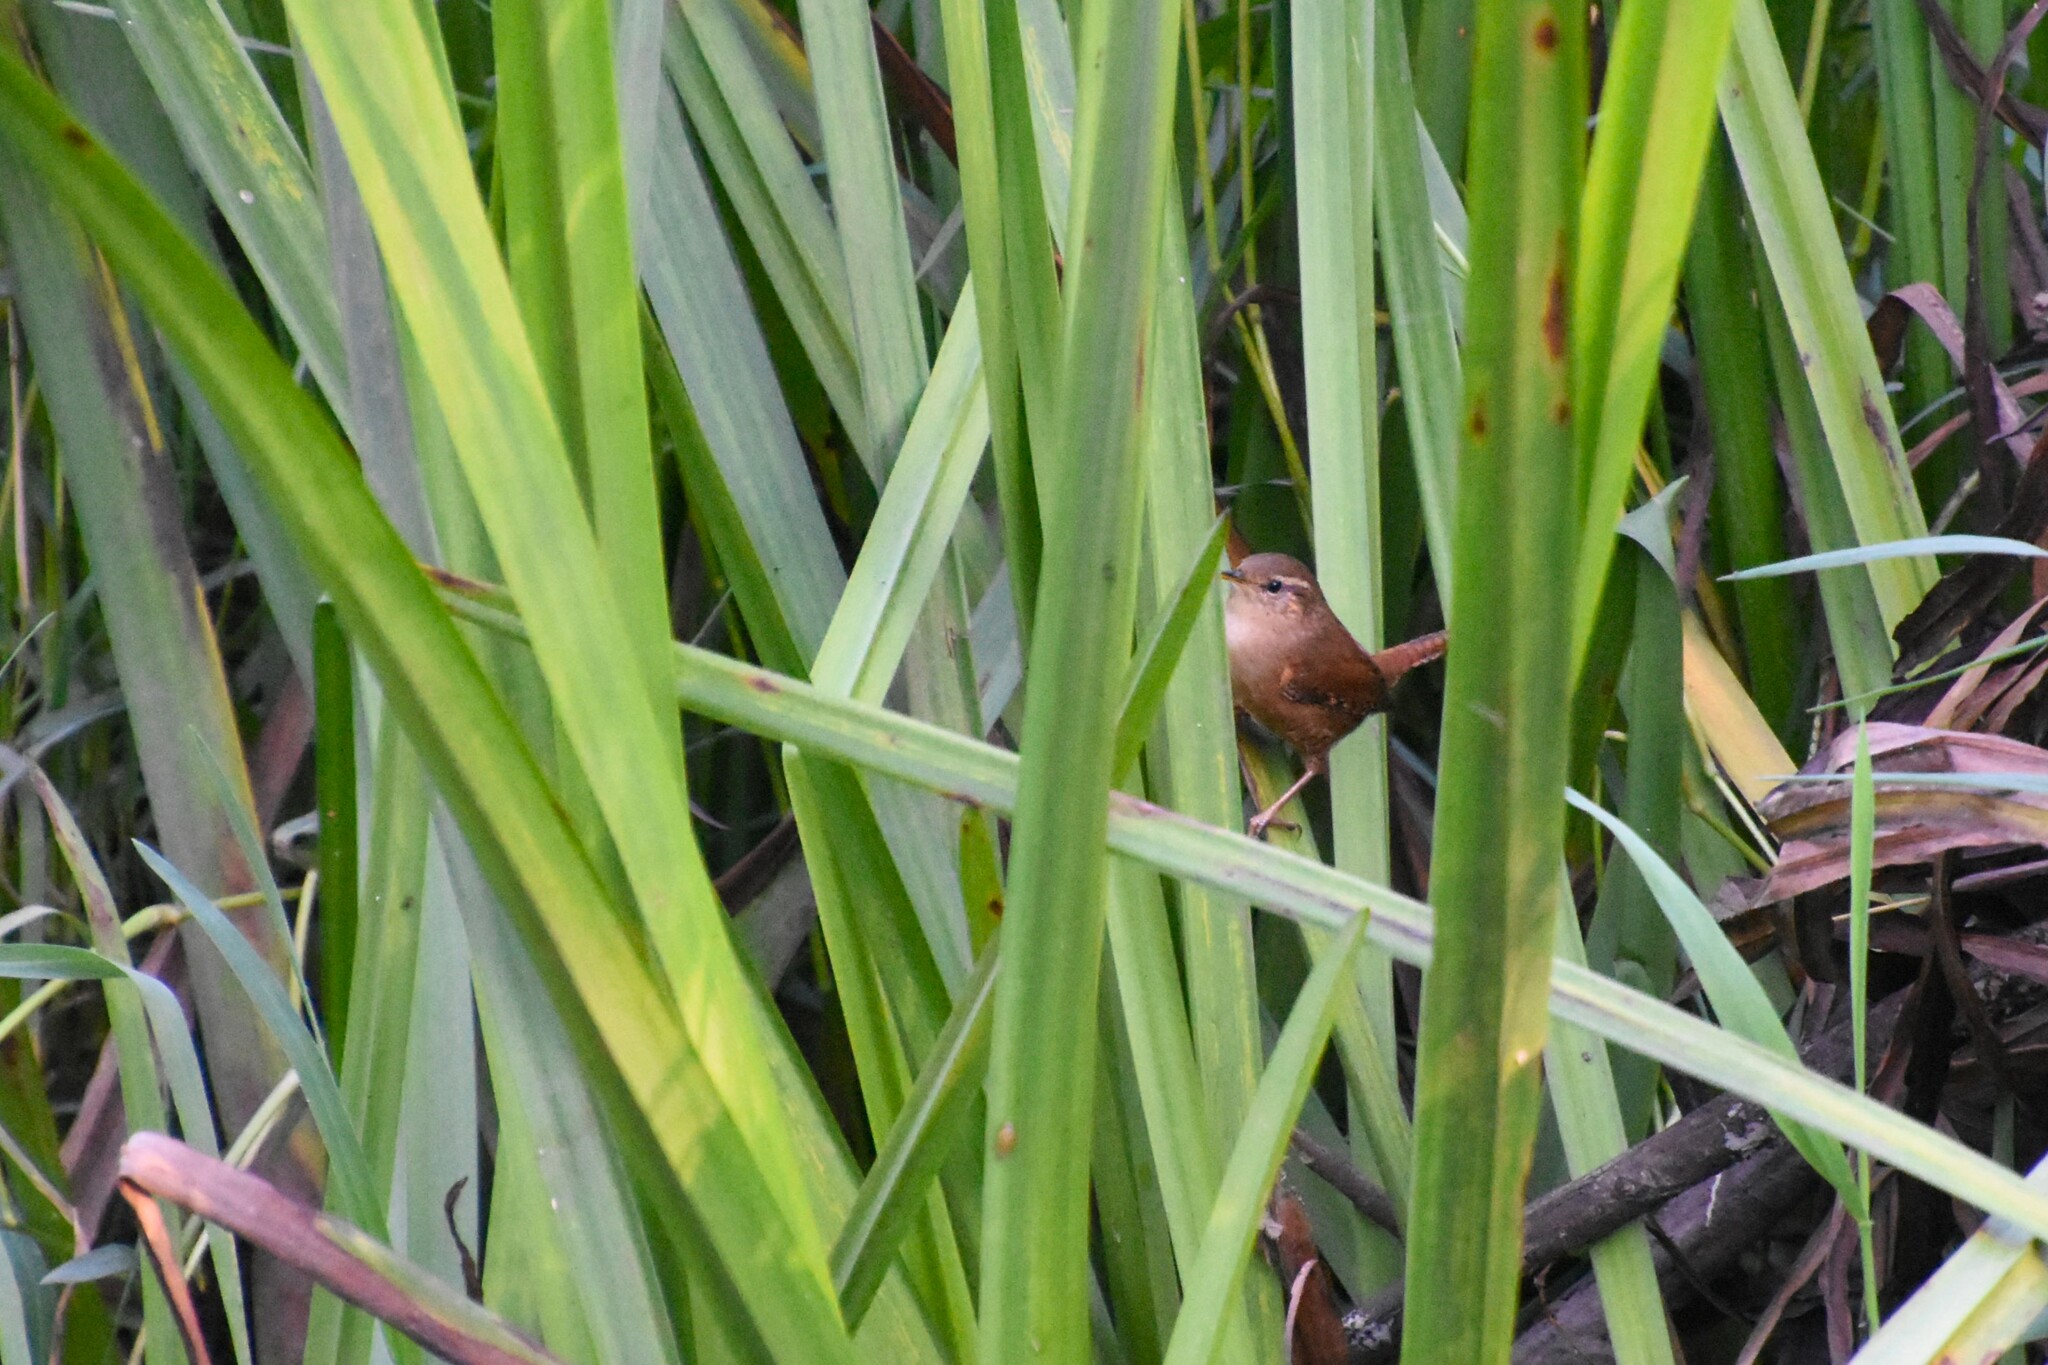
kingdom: Animalia
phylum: Chordata
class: Aves
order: Passeriformes
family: Troglodytidae
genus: Troglodytes
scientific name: Troglodytes troglodytes
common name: Eurasian wren
